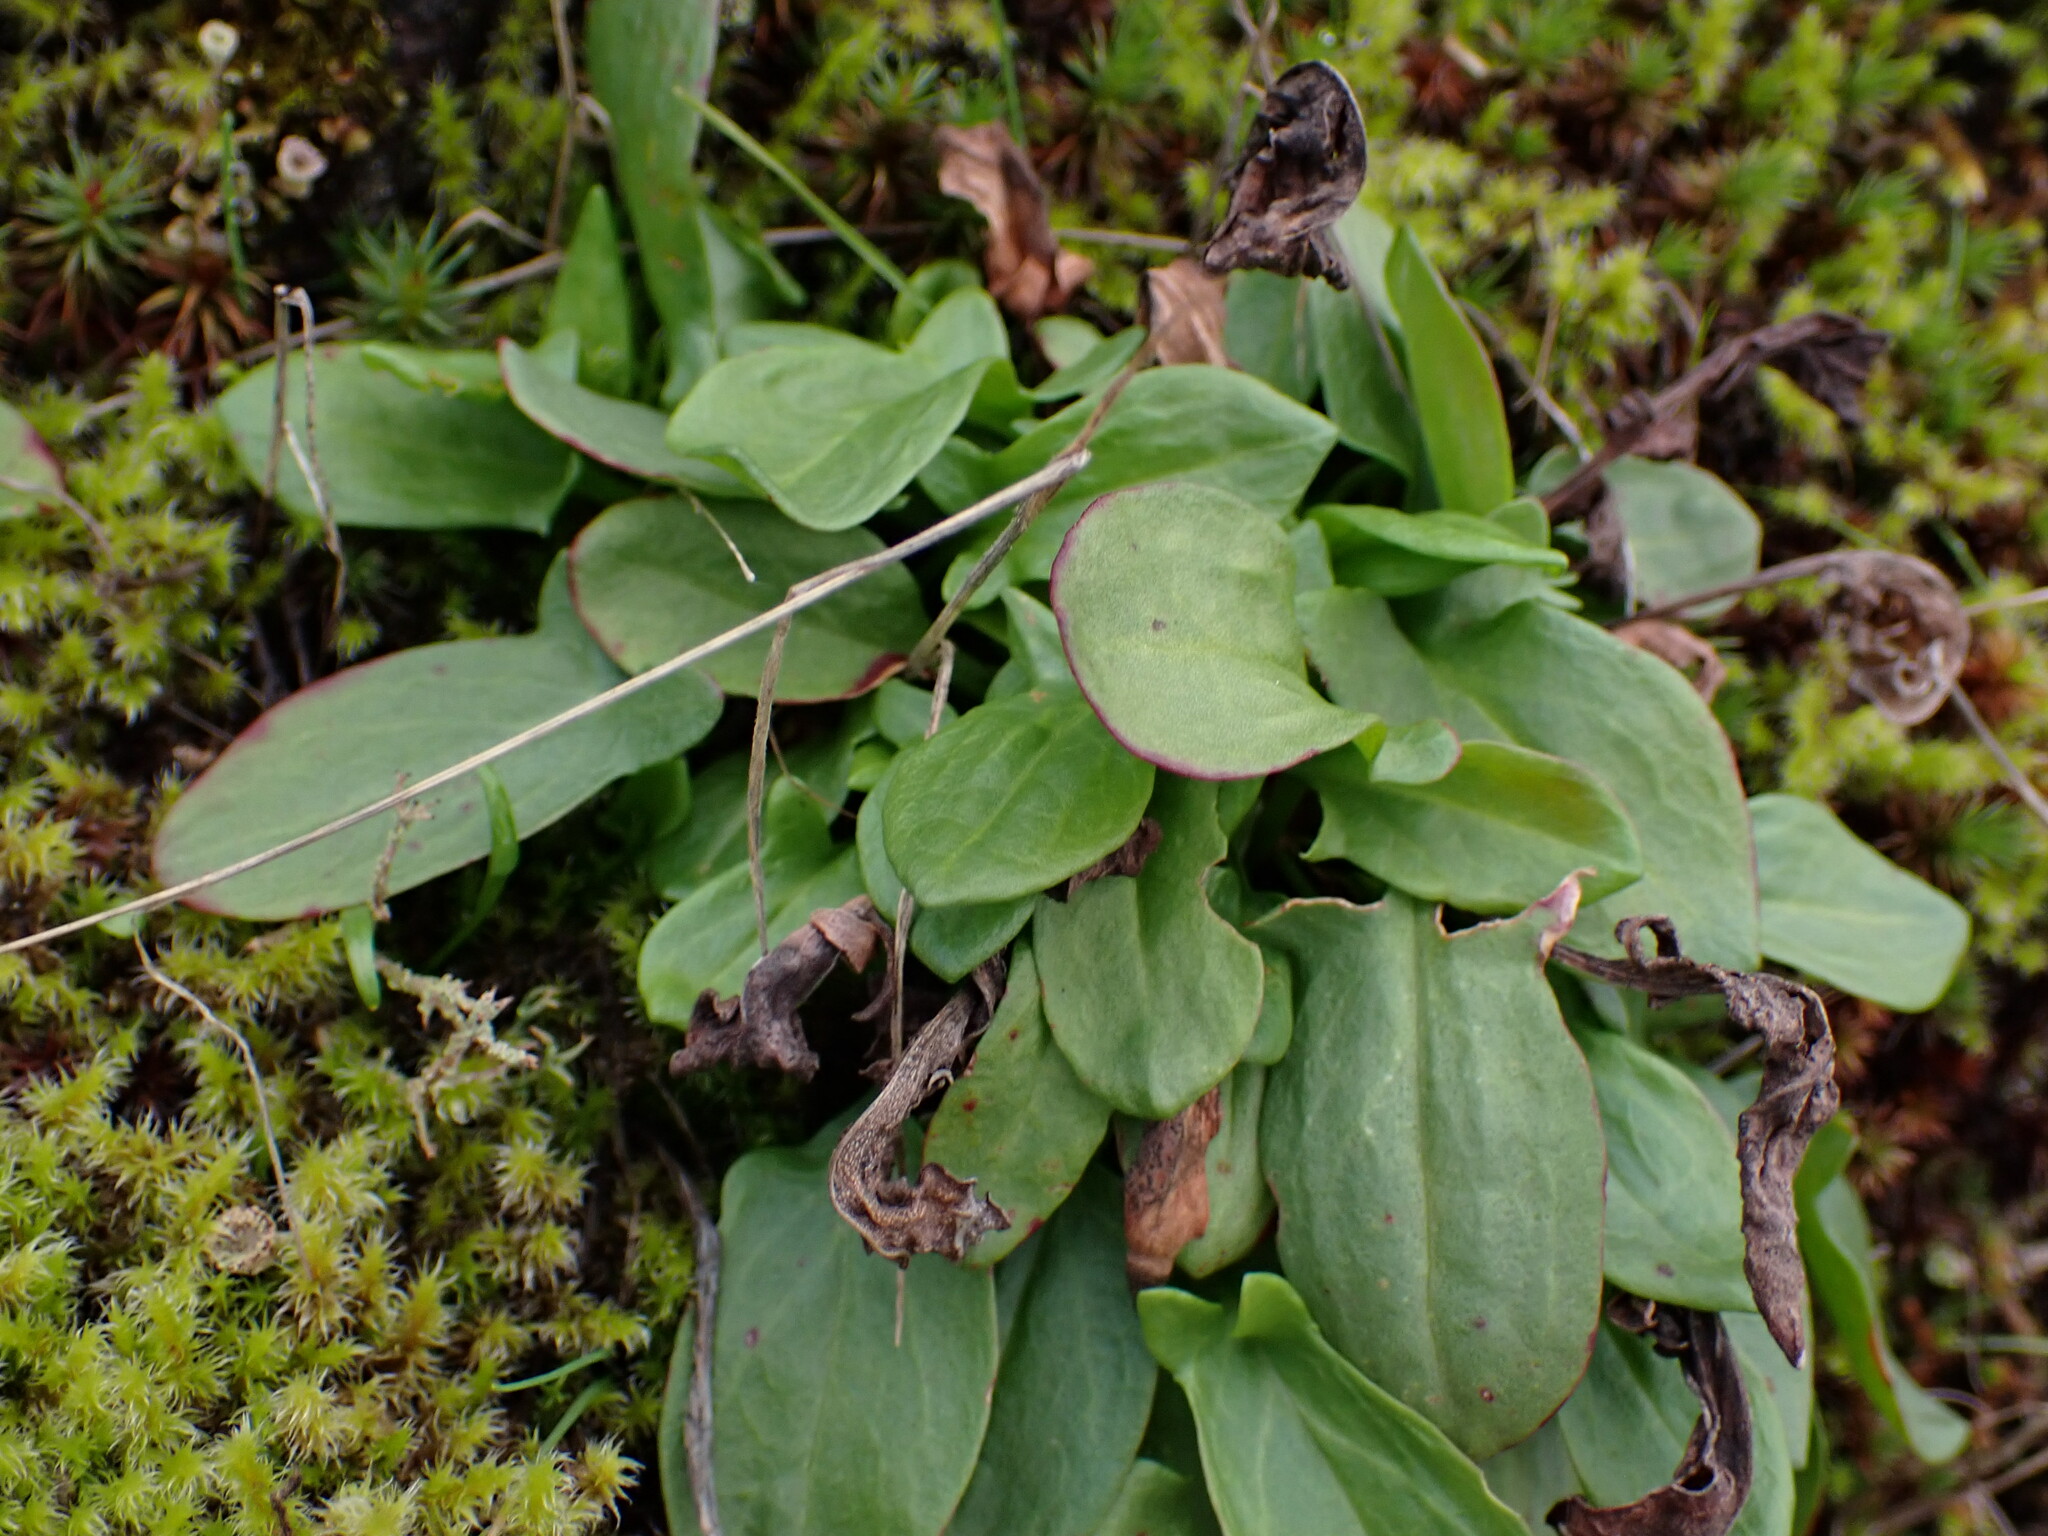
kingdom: Plantae
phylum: Tracheophyta
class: Magnoliopsida
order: Caryophyllales
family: Polygonaceae
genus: Rumex
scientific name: Rumex acetosella
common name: Common sheep sorrel
